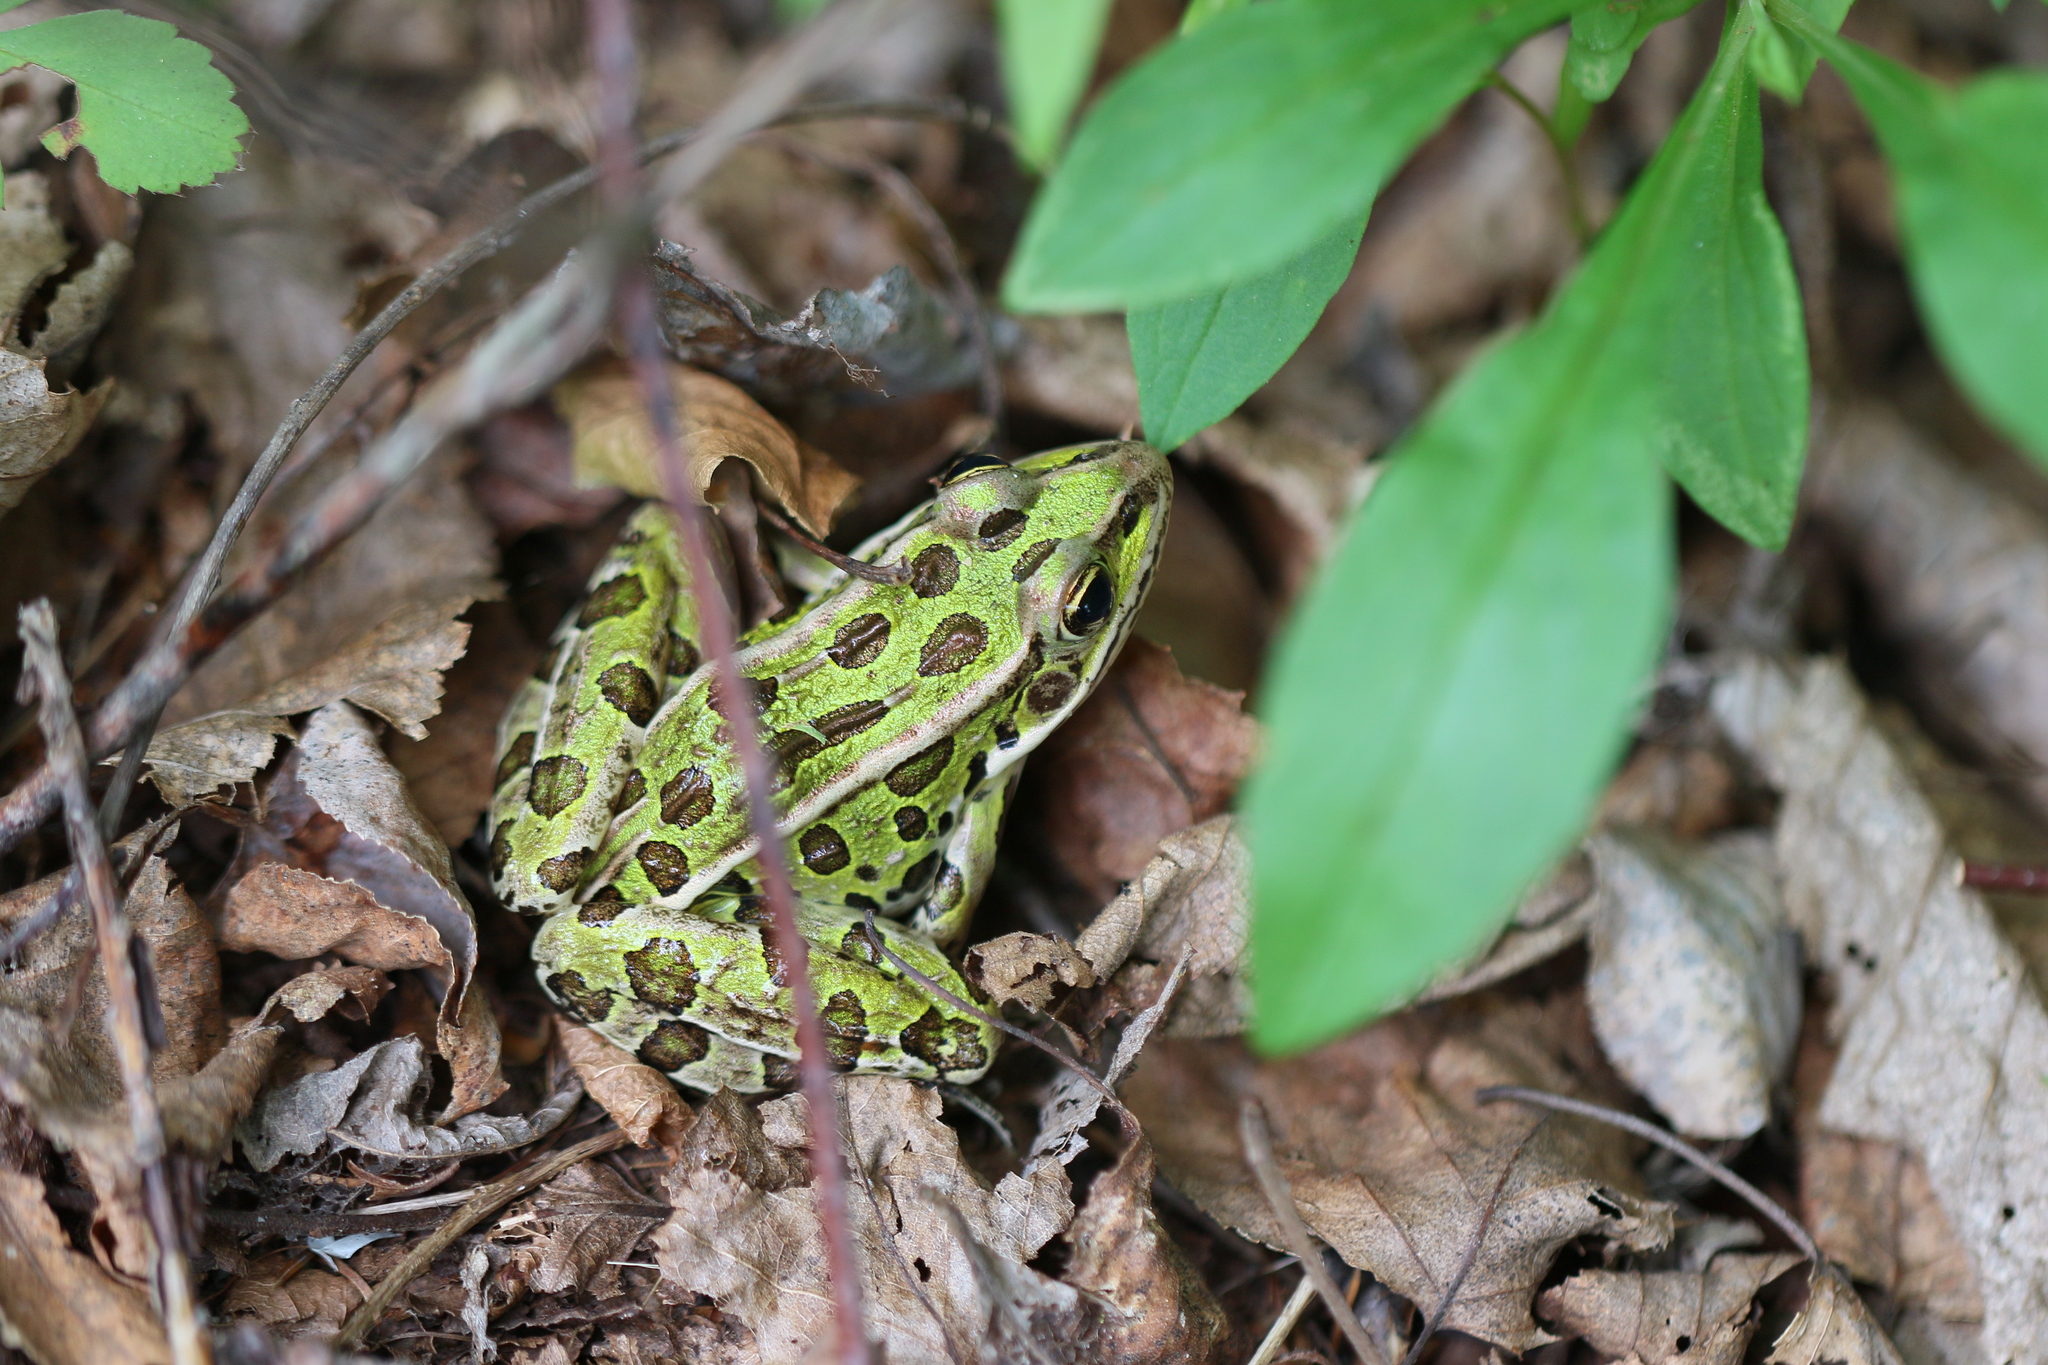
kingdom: Animalia
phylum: Chordata
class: Amphibia
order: Anura
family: Ranidae
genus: Lithobates
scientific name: Lithobates pipiens
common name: Northern leopard frog
